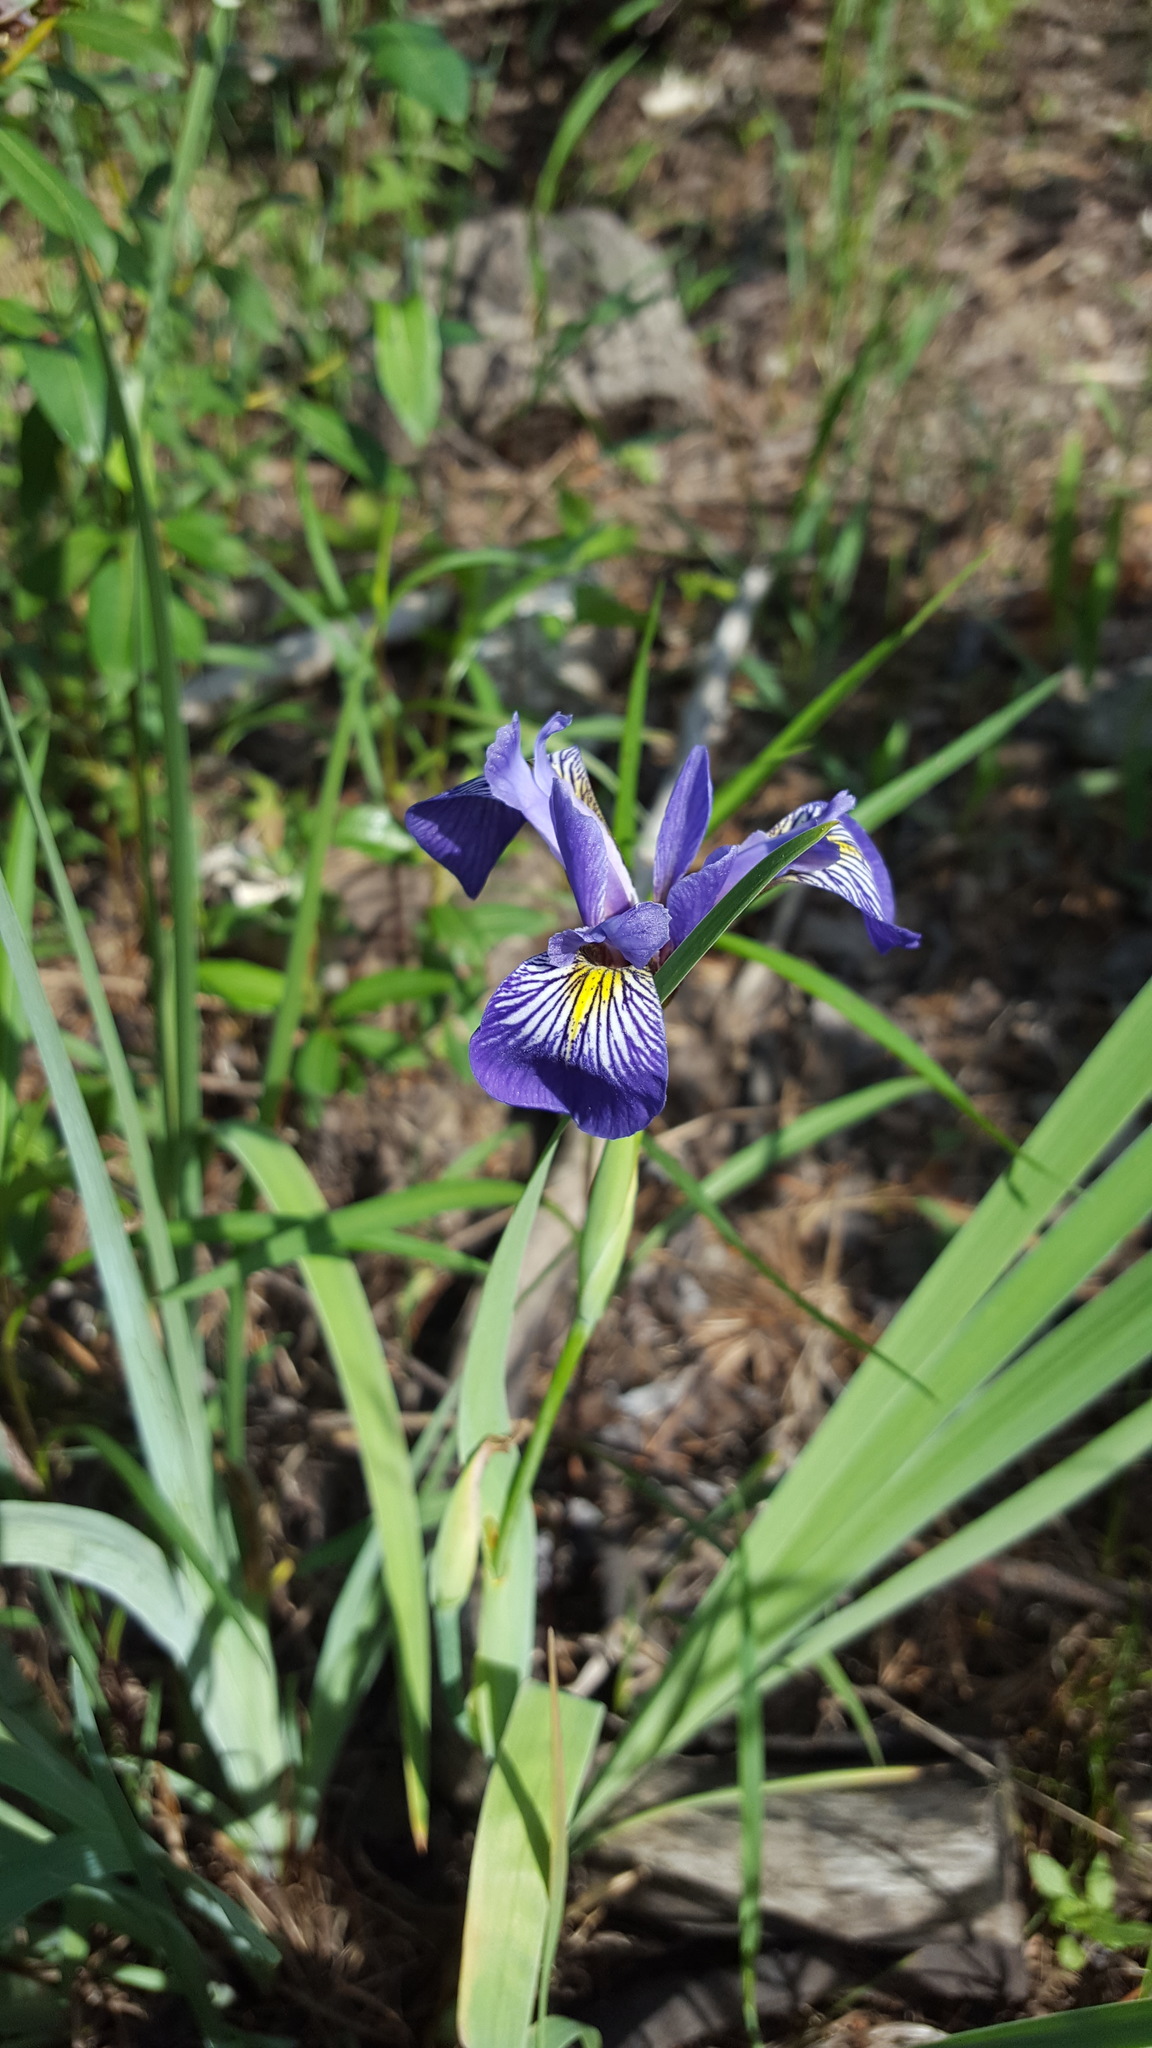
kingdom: Plantae
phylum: Tracheophyta
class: Liliopsida
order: Asparagales
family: Iridaceae
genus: Iris
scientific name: Iris versicolor
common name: Purple iris
